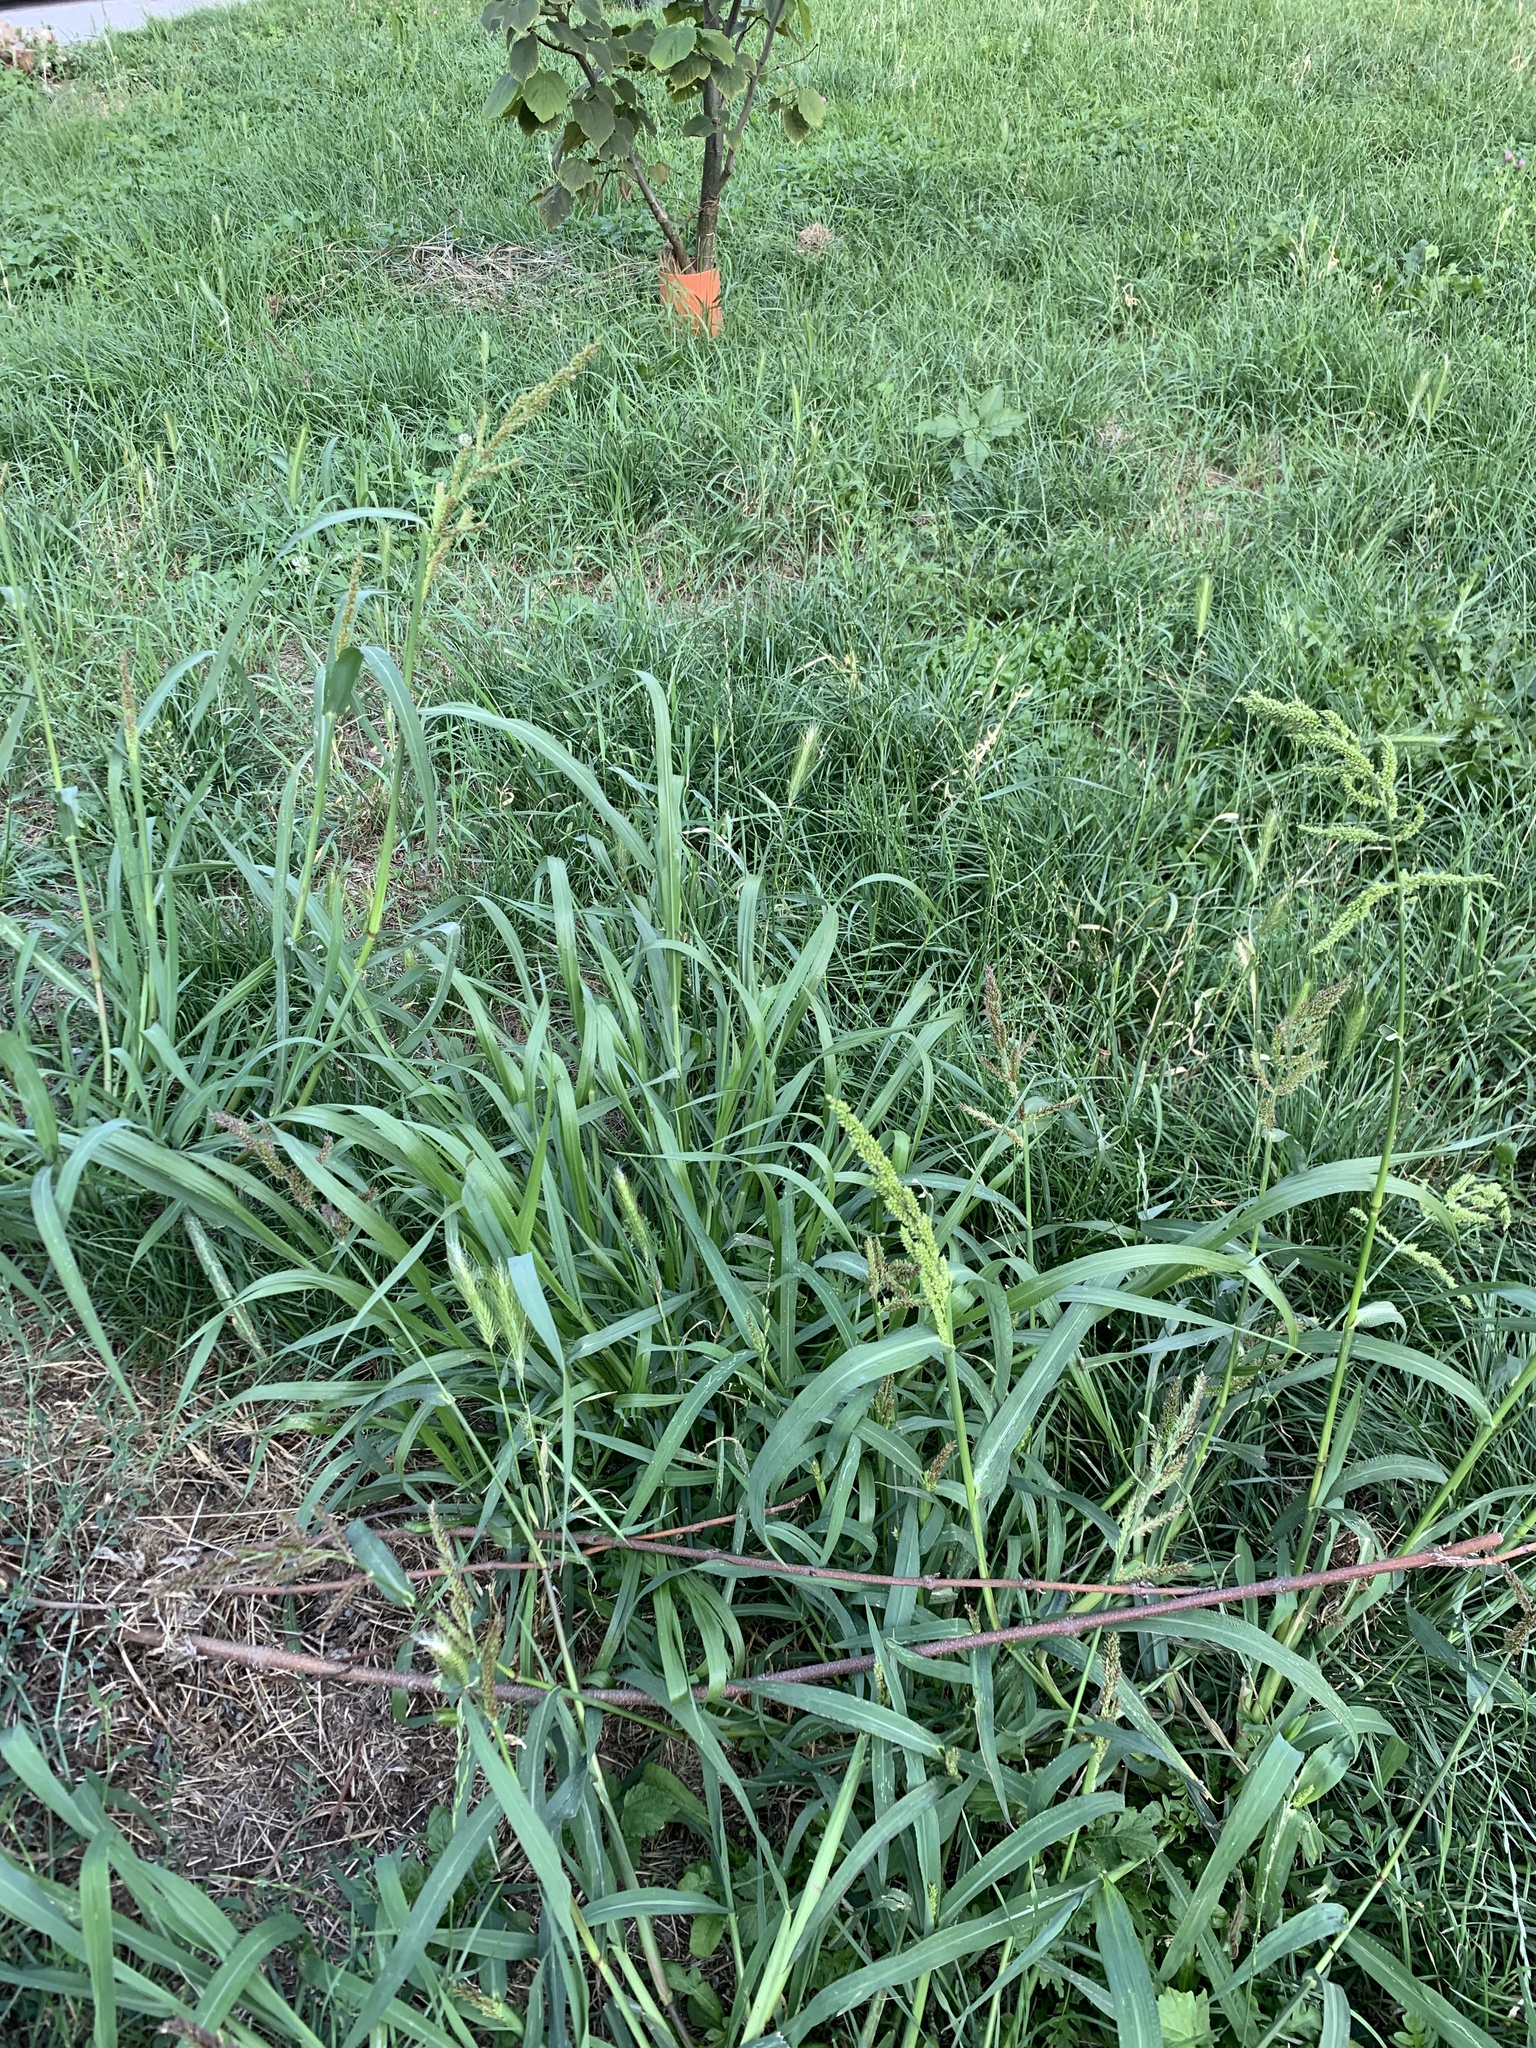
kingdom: Plantae
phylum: Tracheophyta
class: Liliopsida
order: Poales
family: Poaceae
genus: Echinochloa
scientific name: Echinochloa crus-galli
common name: Cockspur
